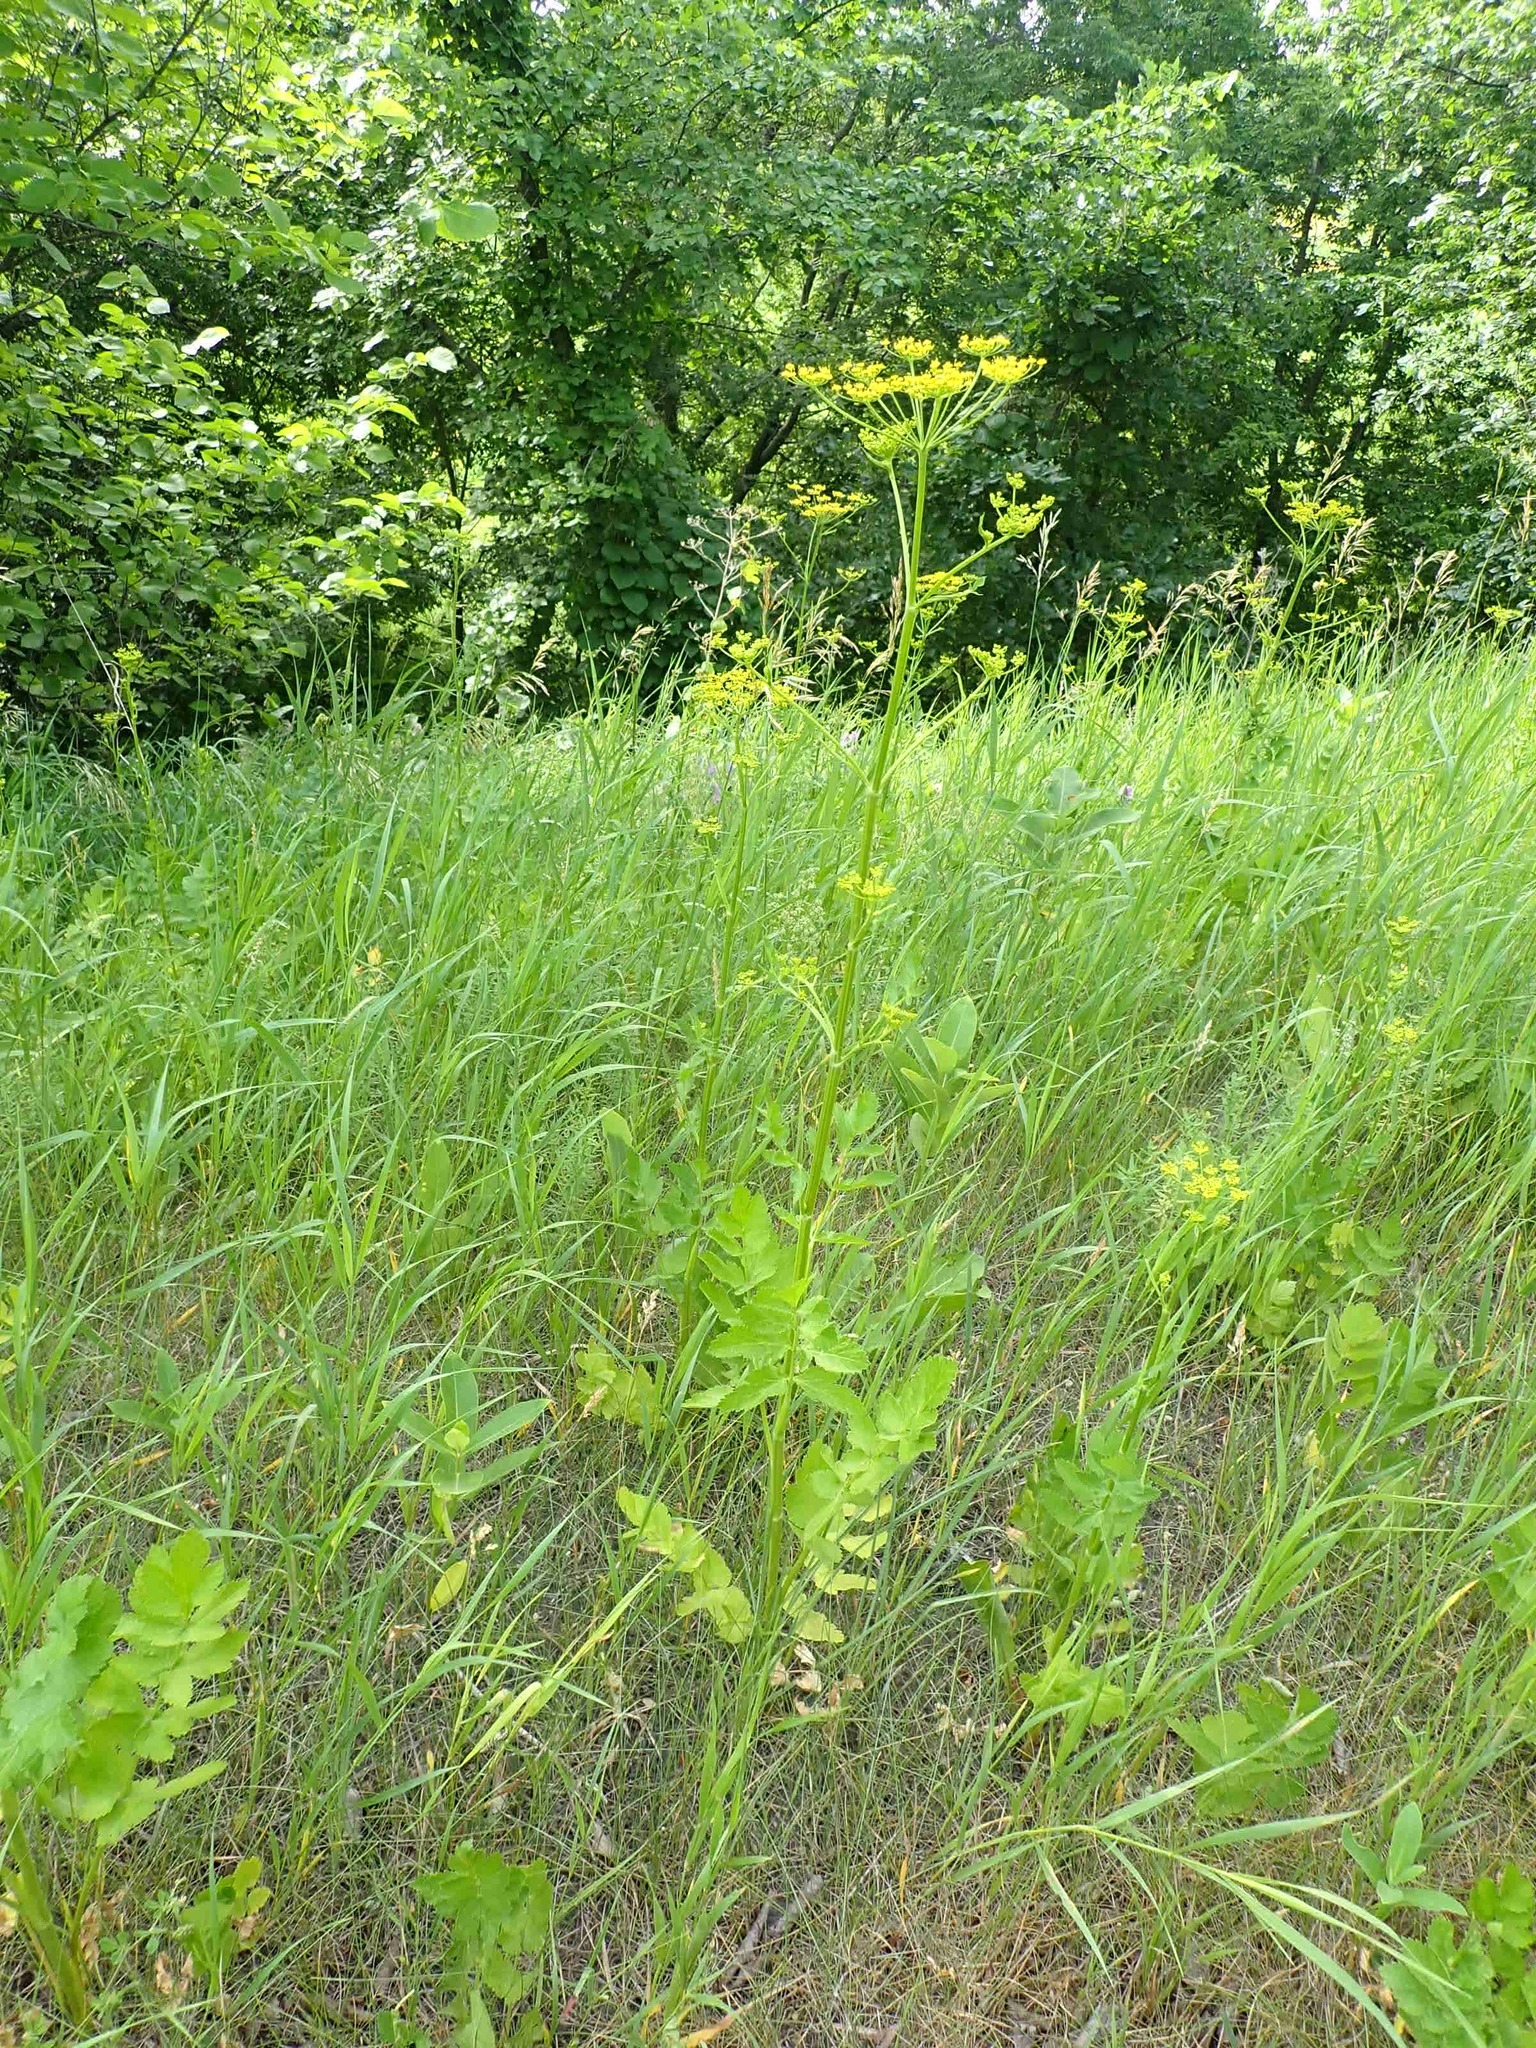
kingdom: Plantae
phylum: Tracheophyta
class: Magnoliopsida
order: Apiales
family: Apiaceae
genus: Pastinaca
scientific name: Pastinaca sativa
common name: Wild parsnip
